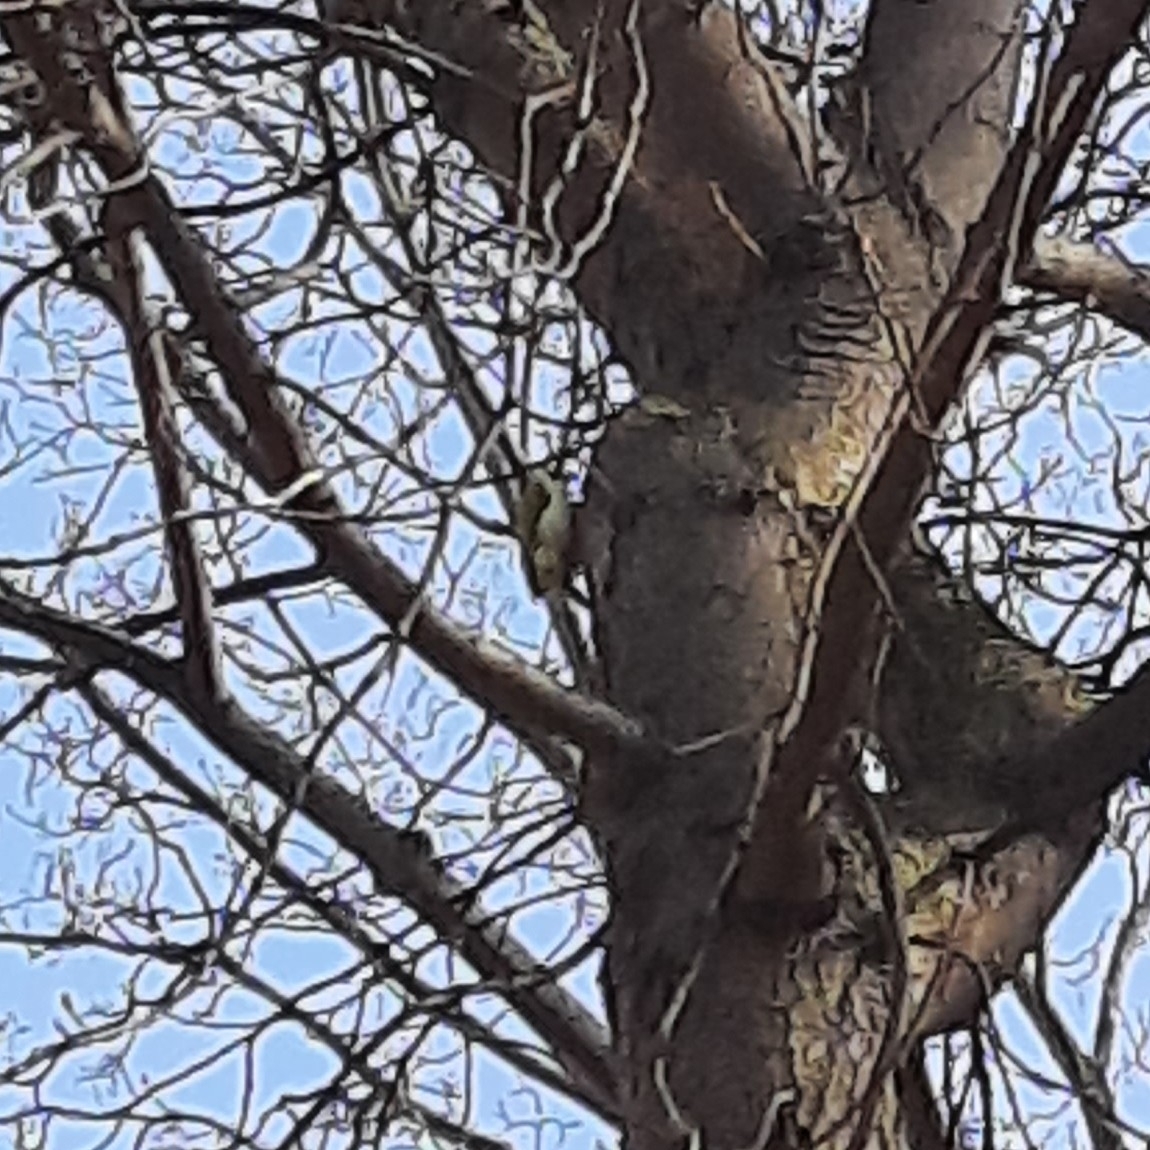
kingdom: Animalia
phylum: Chordata
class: Aves
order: Piciformes
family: Picidae
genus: Picus
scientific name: Picus viridis
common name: European green woodpecker
